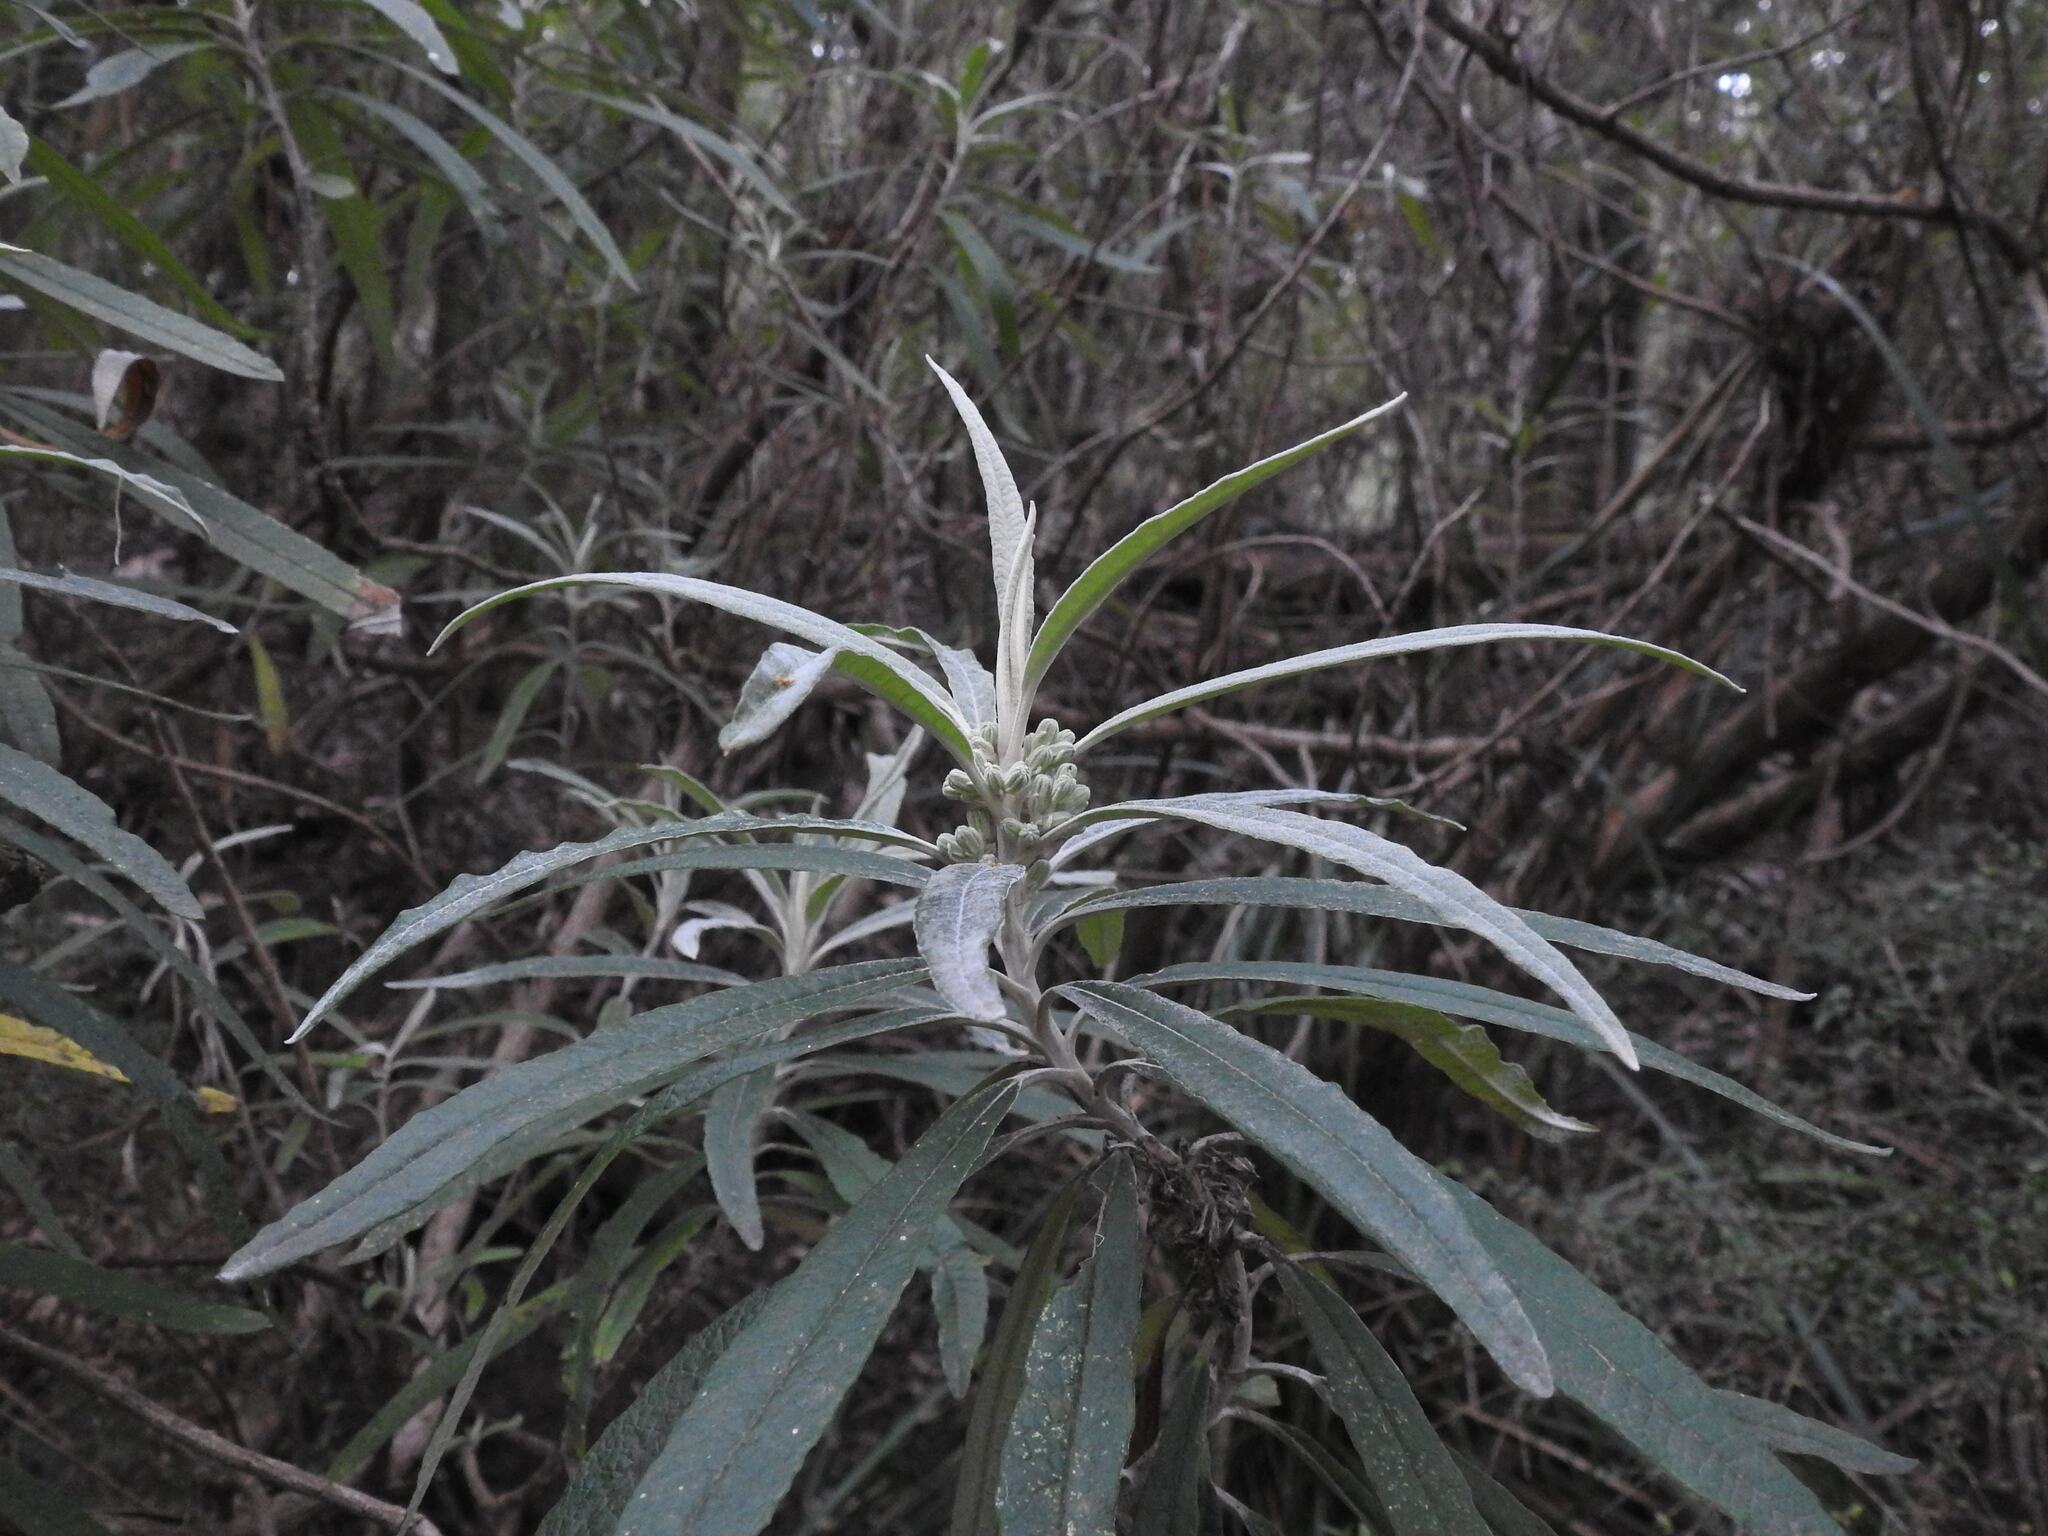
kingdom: Plantae
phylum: Tracheophyta
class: Magnoliopsida
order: Asterales
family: Asteraceae
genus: Bedfordia
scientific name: Bedfordia salicina
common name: Blanketleaf
